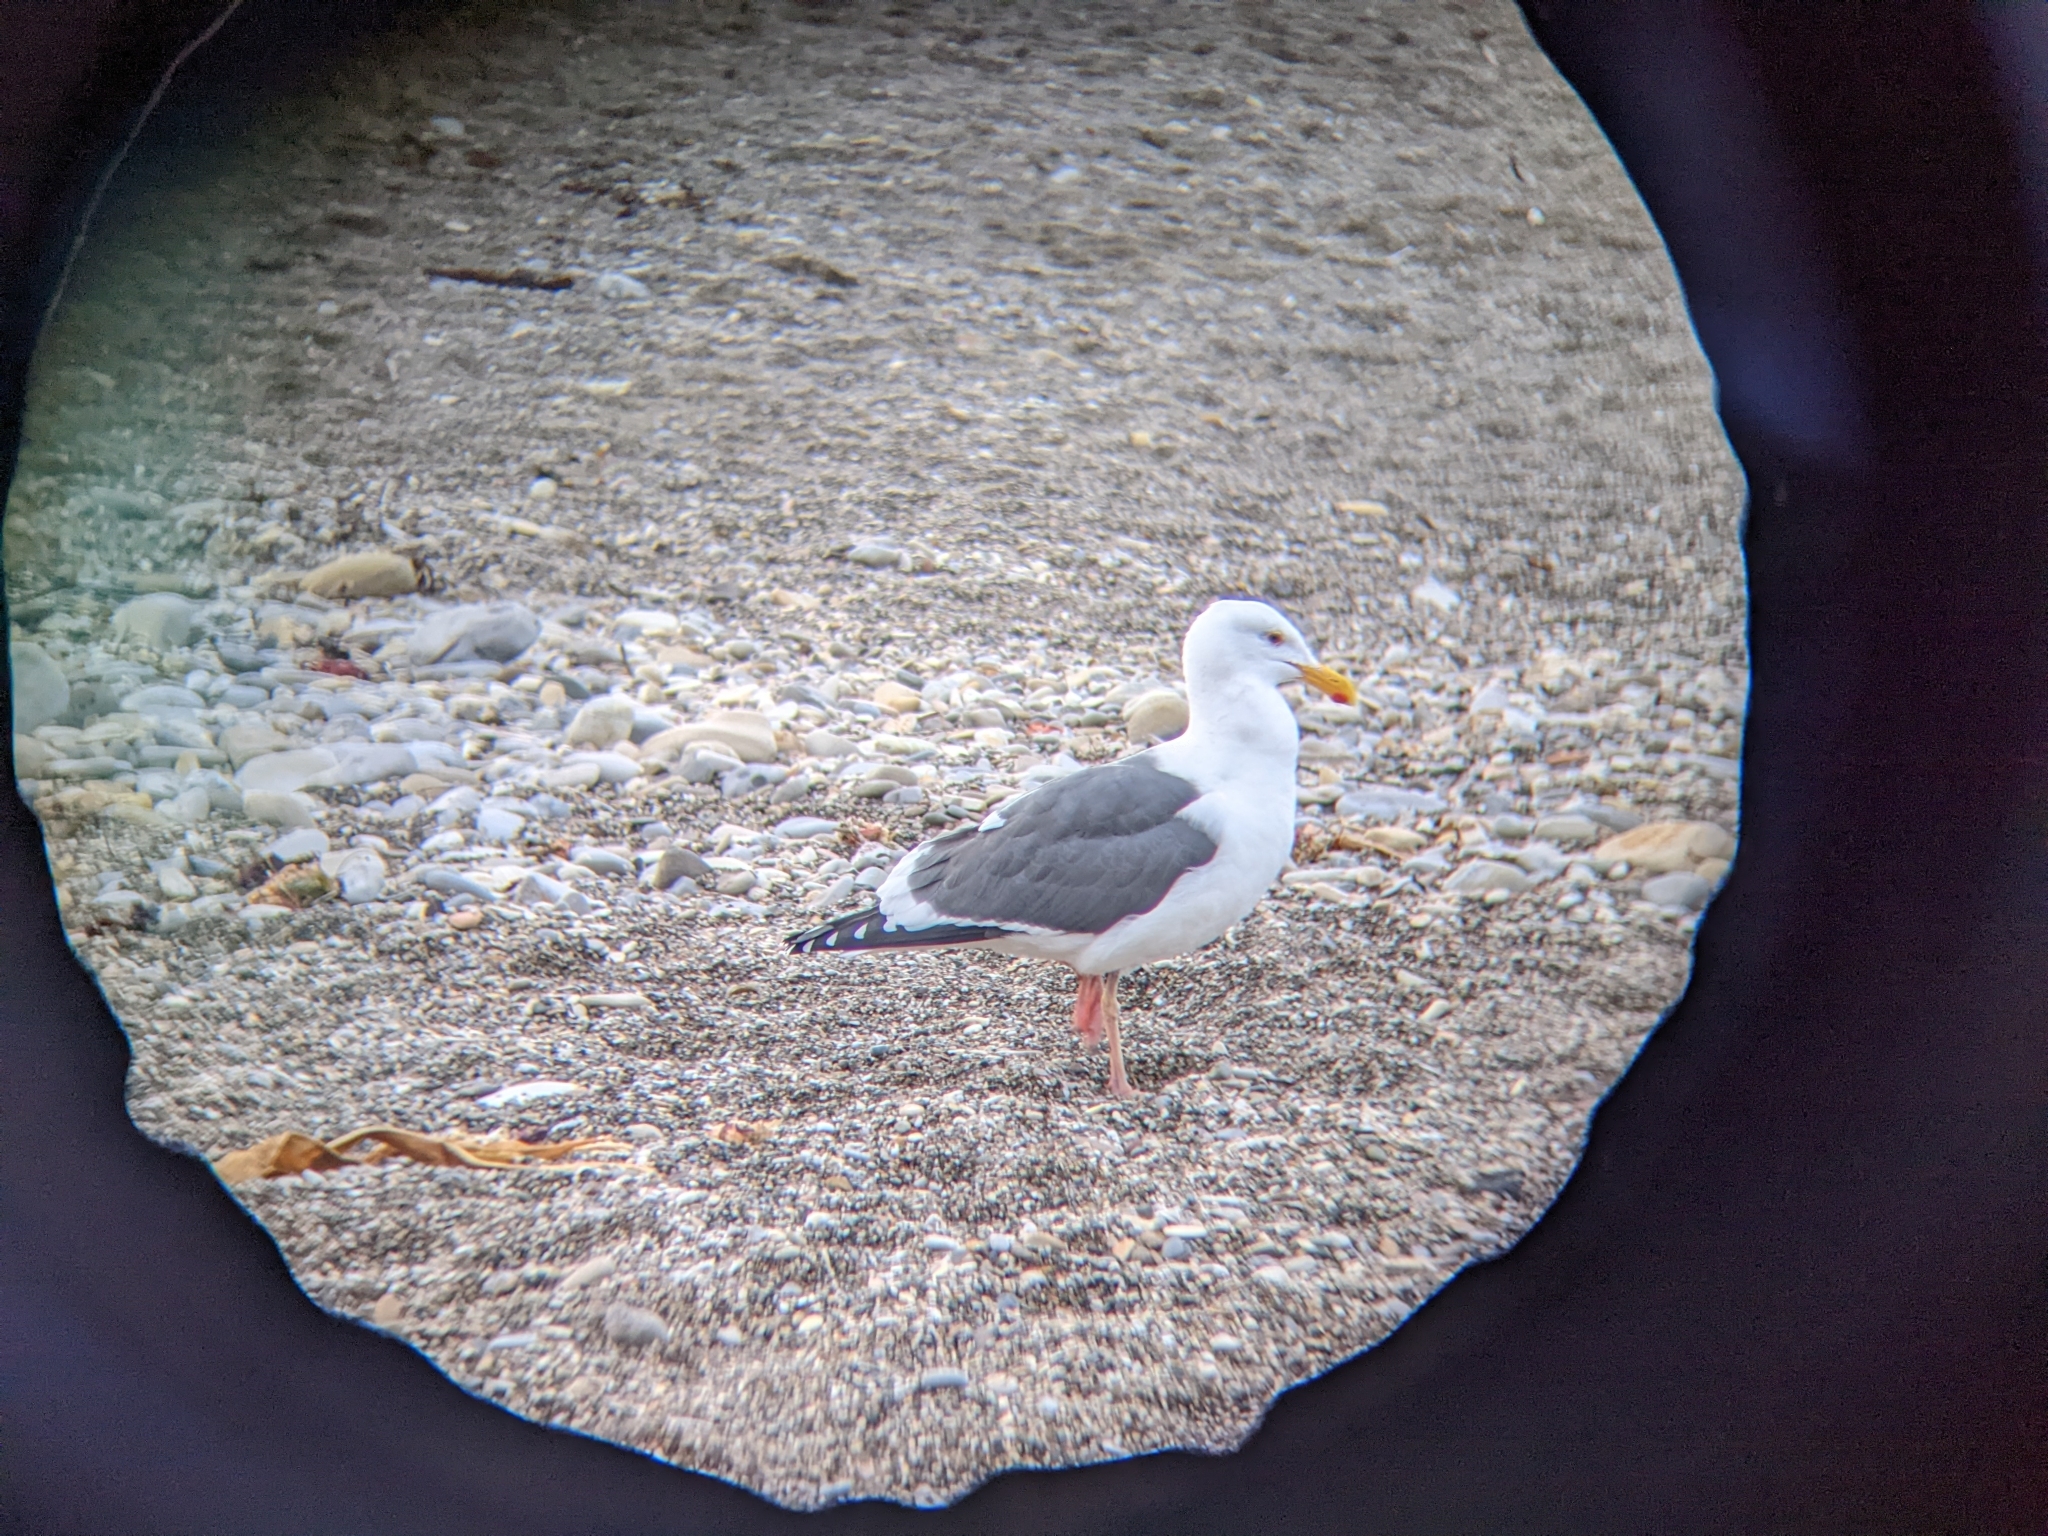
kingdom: Animalia
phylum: Chordata
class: Aves
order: Charadriiformes
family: Laridae
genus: Larus
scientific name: Larus occidentalis
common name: Western gull
